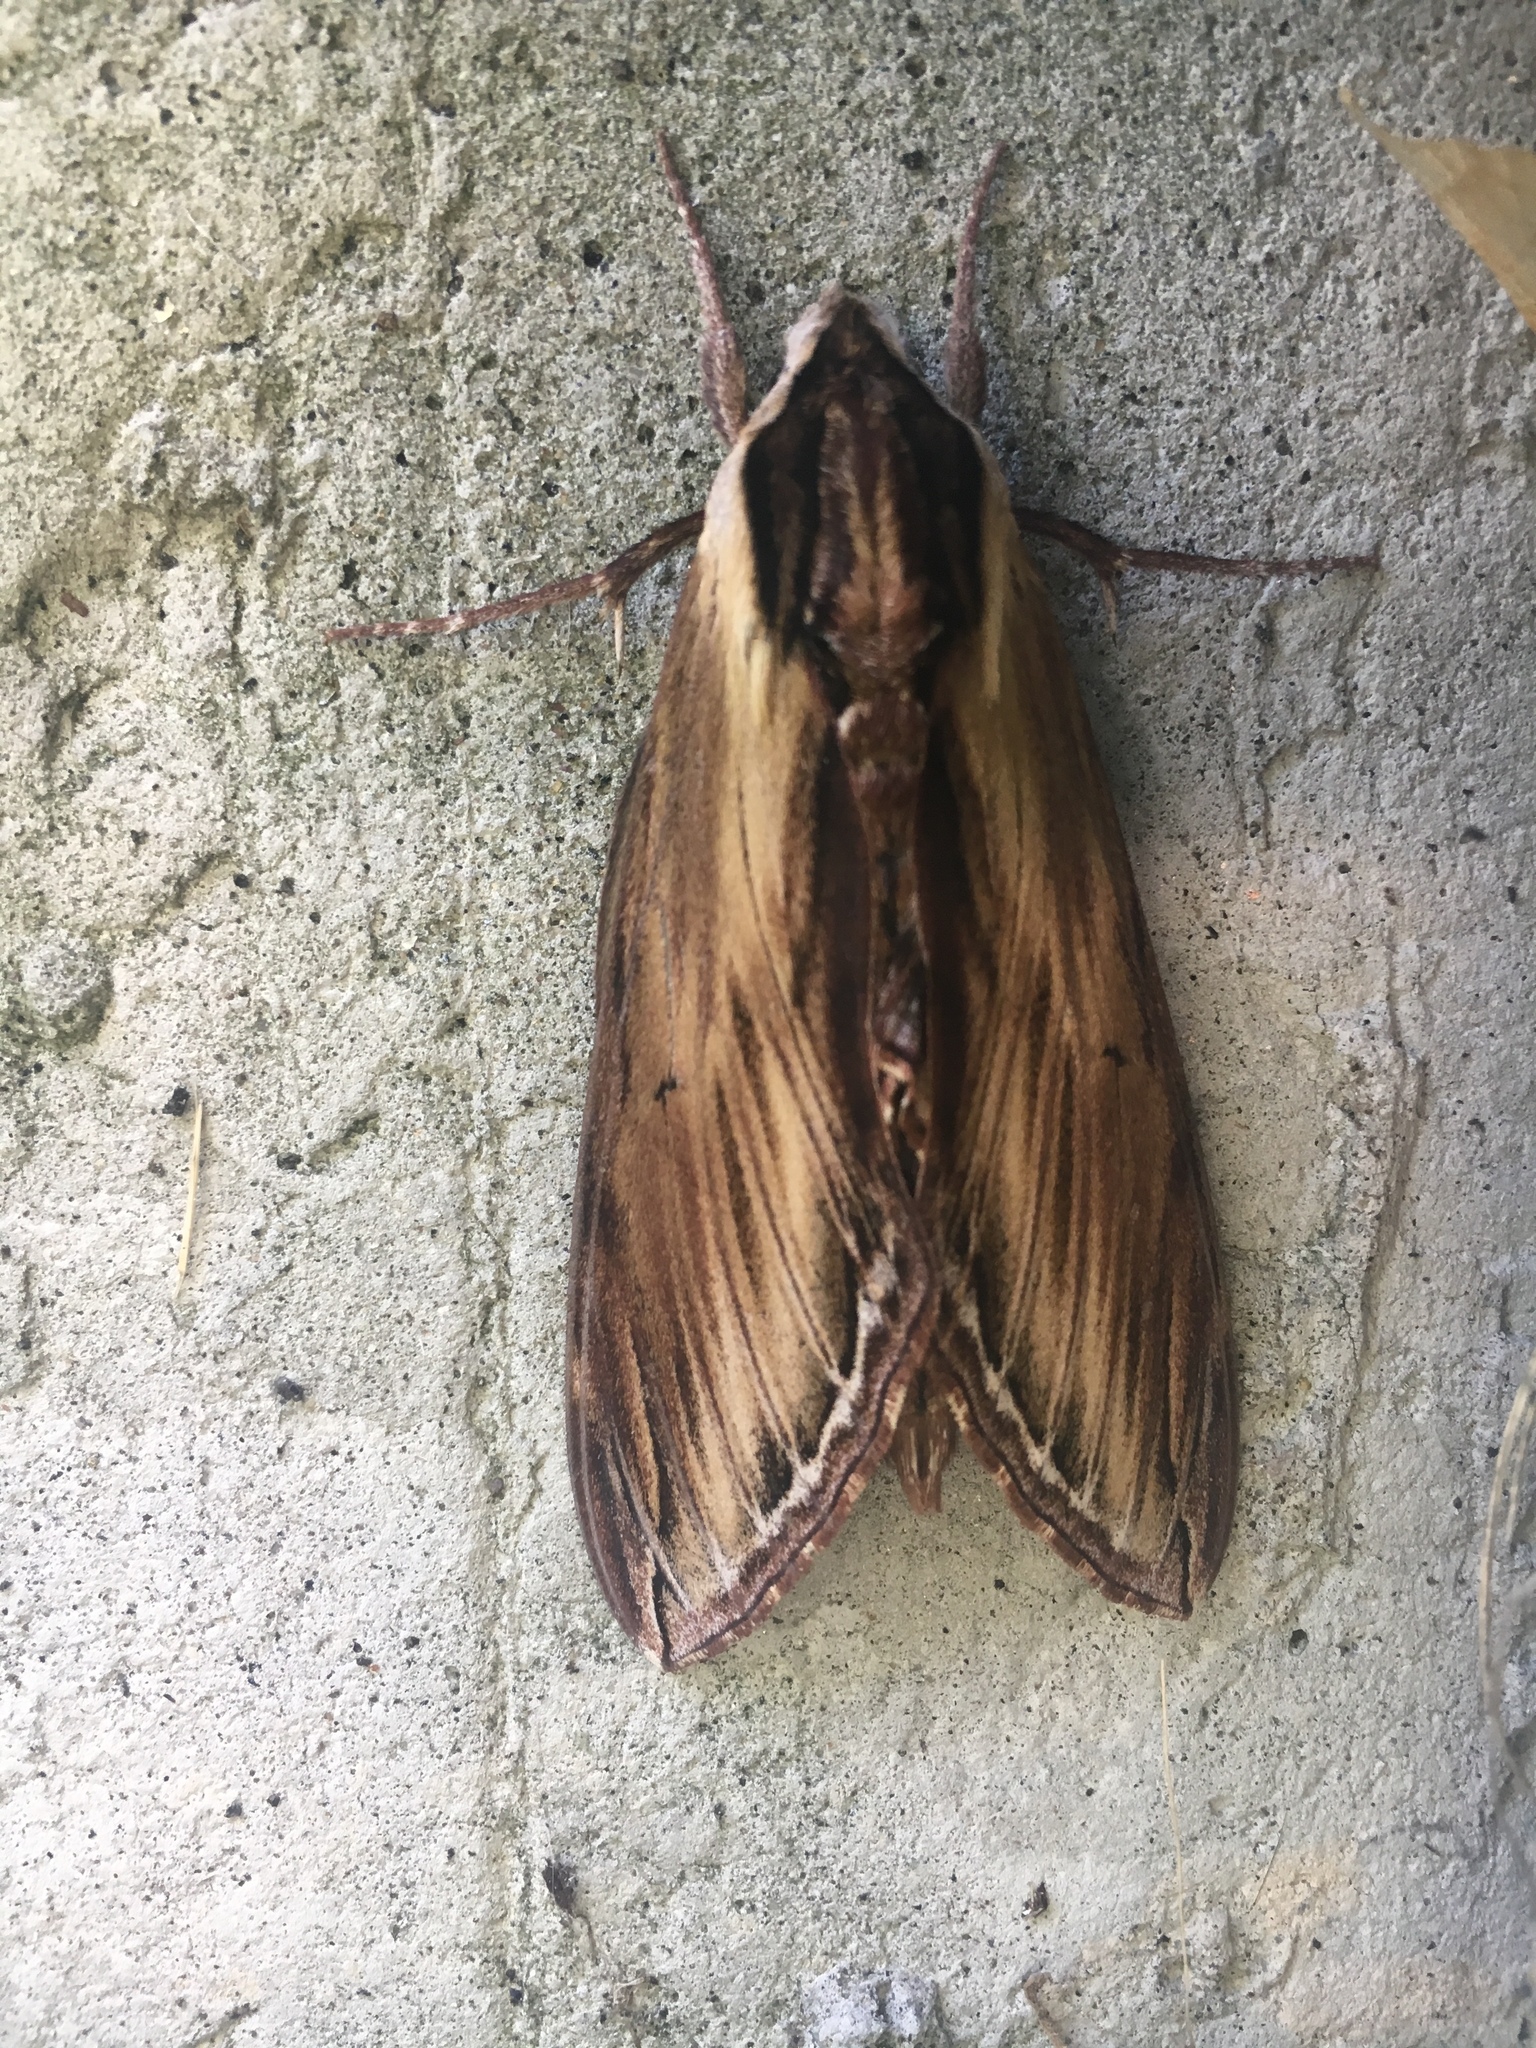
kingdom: Animalia
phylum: Arthropoda
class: Insecta
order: Lepidoptera
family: Sphingidae
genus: Sphinx
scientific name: Sphinx kalmiae
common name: Laurel sphinx
